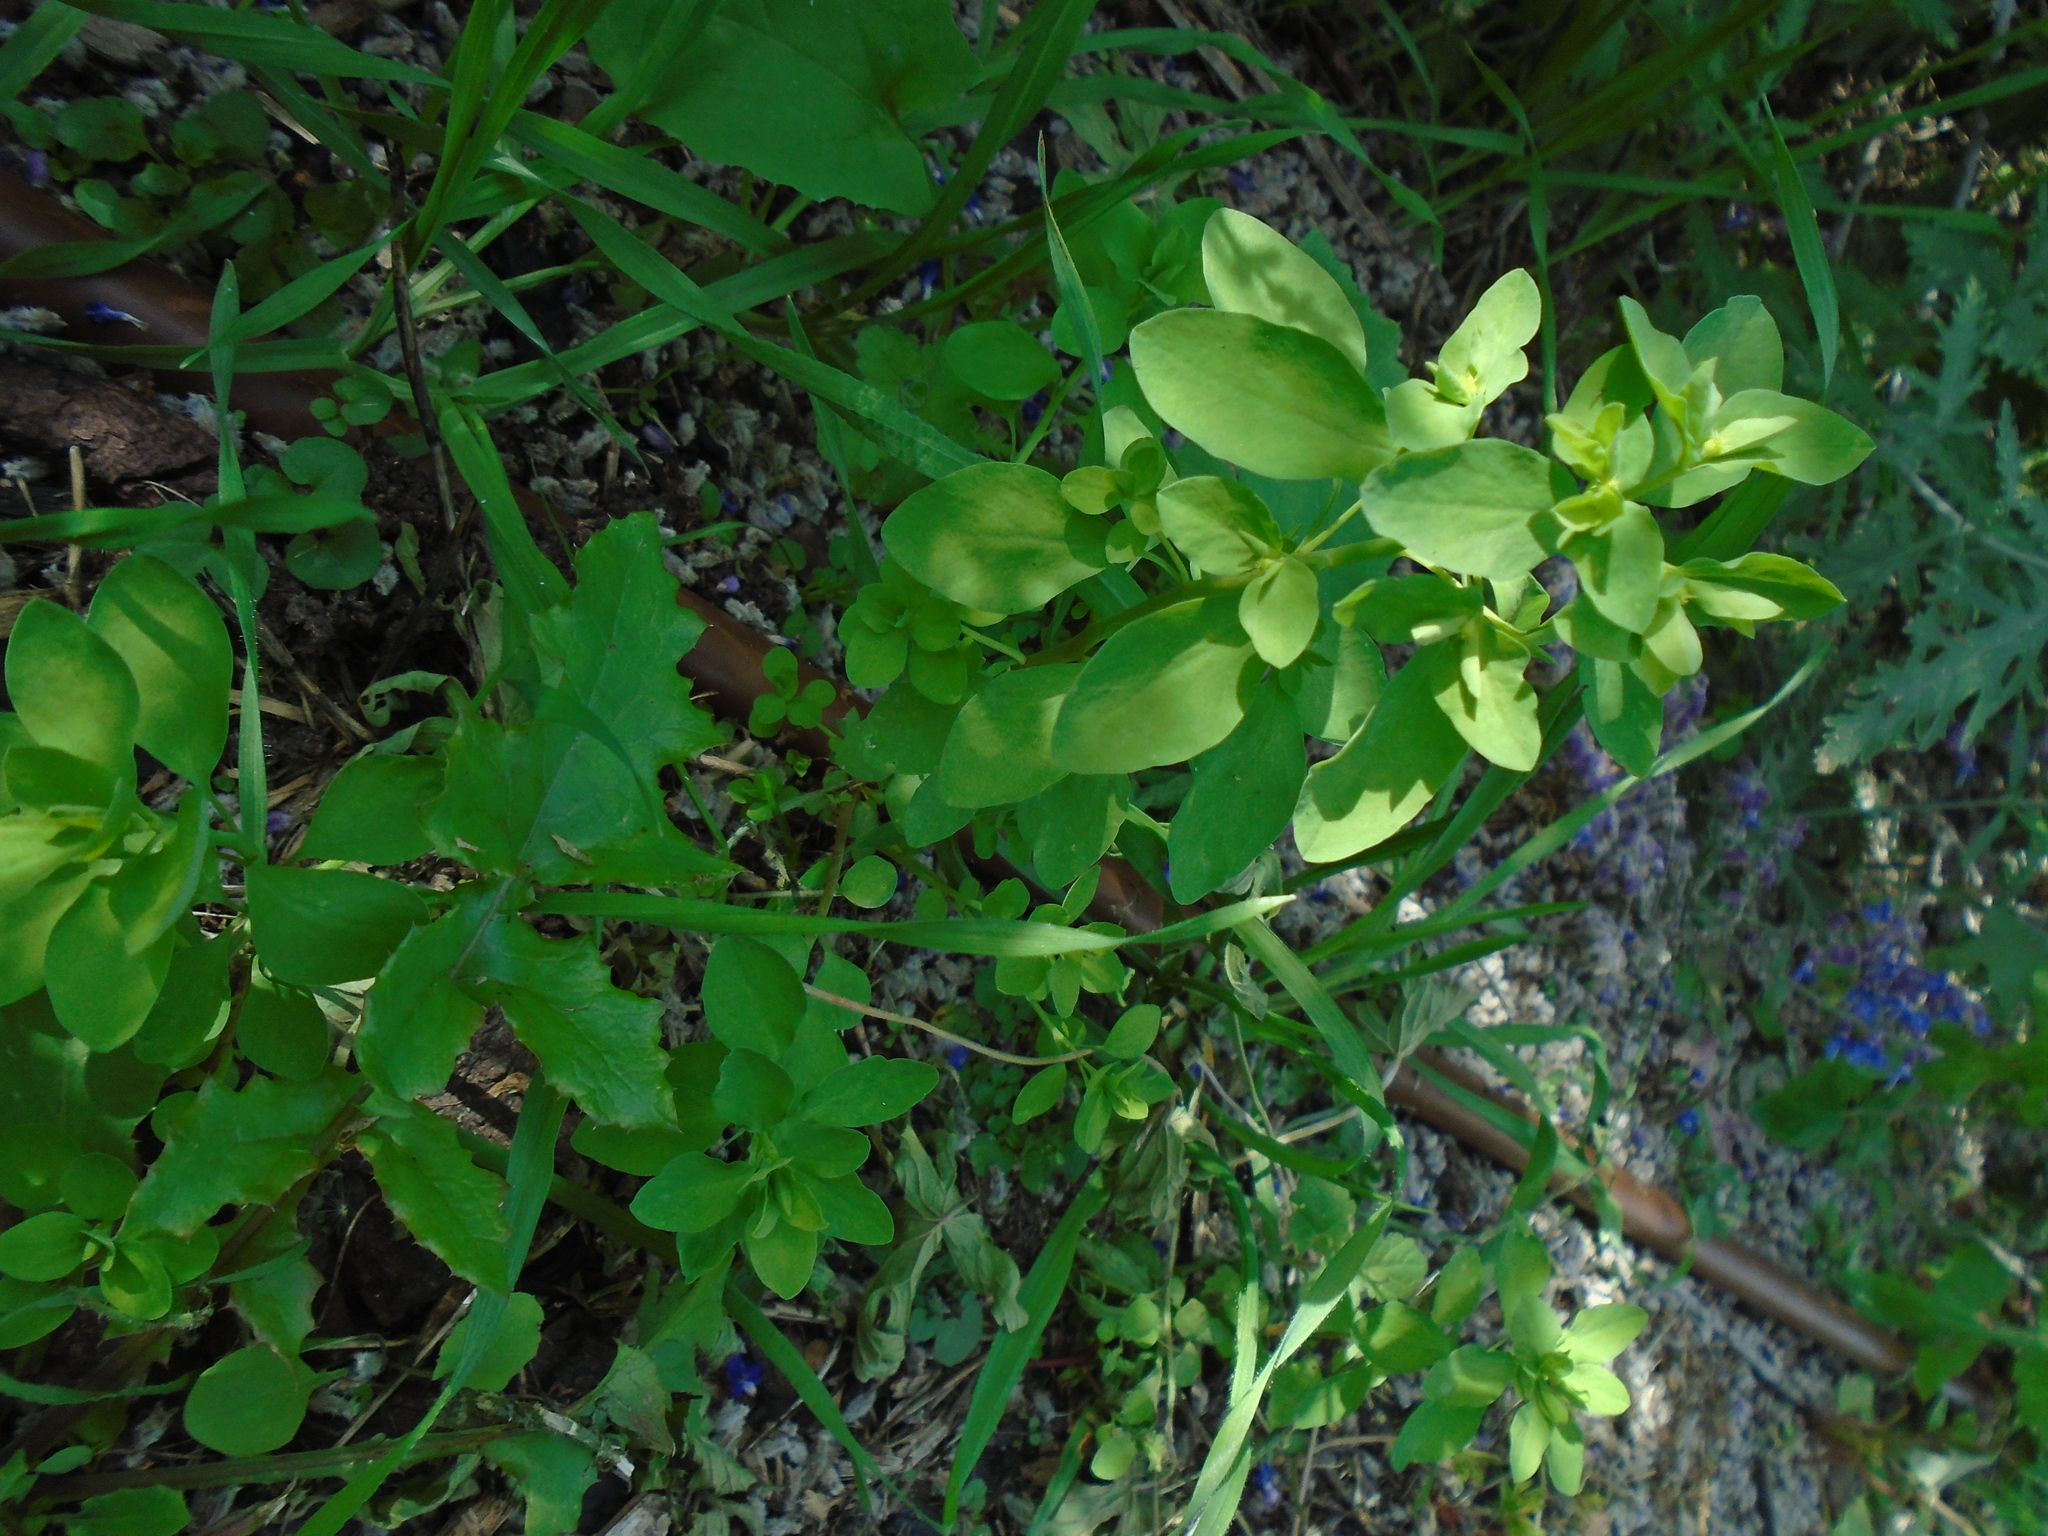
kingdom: Plantae
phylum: Tracheophyta
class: Magnoliopsida
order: Malpighiales
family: Euphorbiaceae
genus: Euphorbia
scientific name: Euphorbia peplus
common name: Petty spurge
